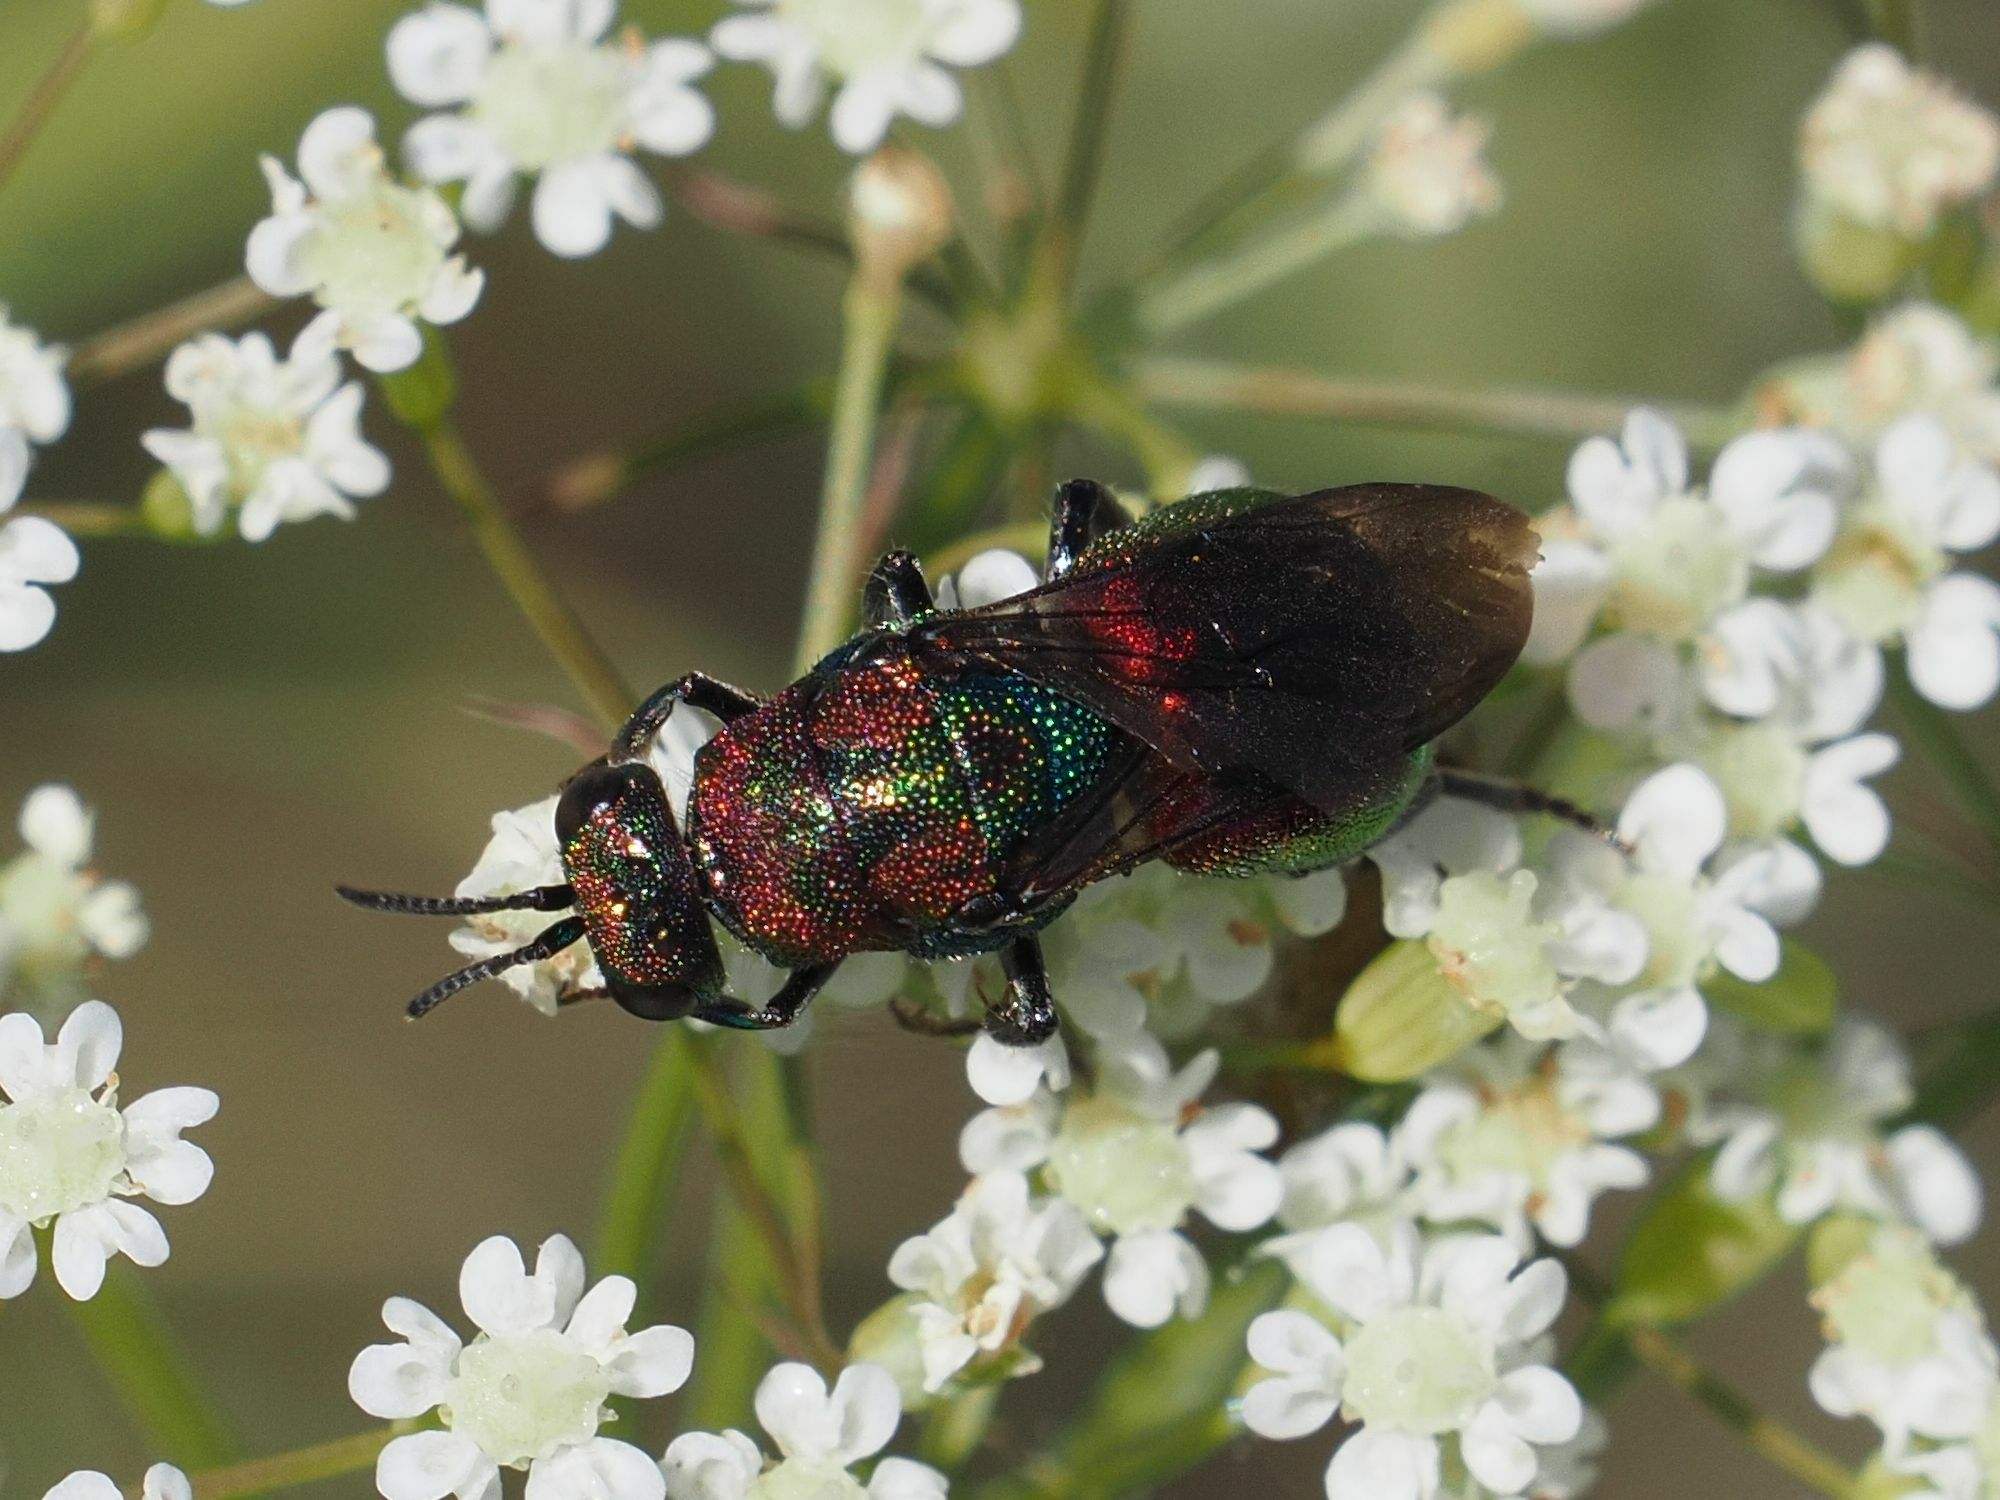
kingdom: Animalia
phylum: Arthropoda
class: Insecta
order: Hymenoptera
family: Chrysididae
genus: Hedychrum
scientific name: Hedychrum rutilans
